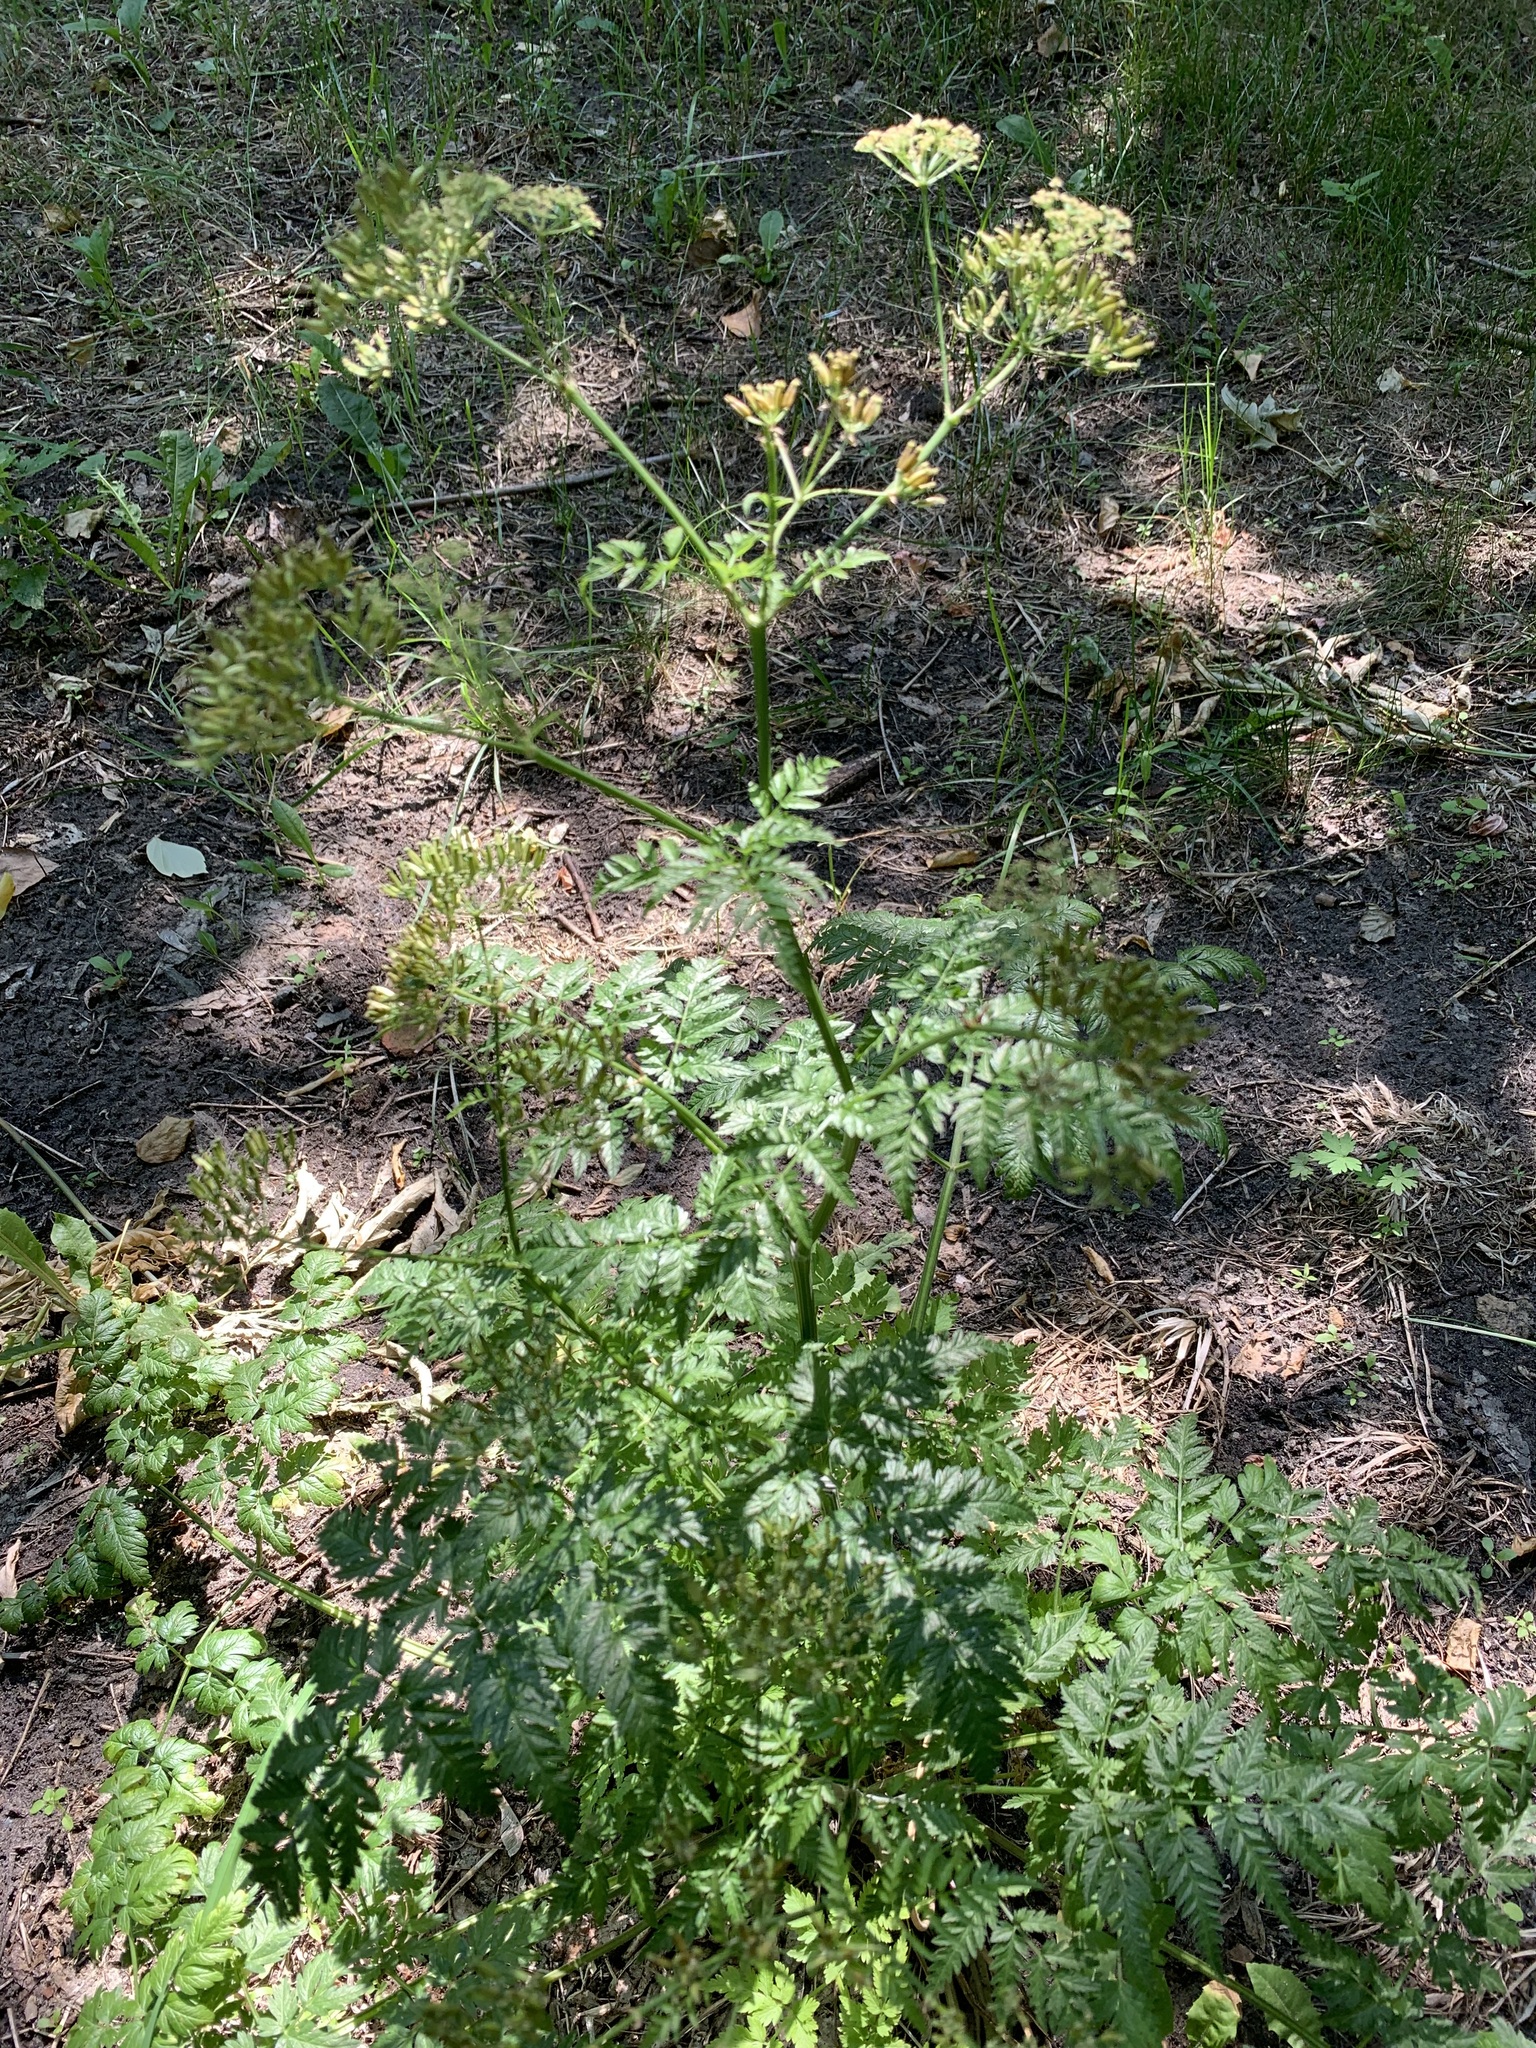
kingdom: Plantae
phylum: Tracheophyta
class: Magnoliopsida
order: Apiales
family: Apiaceae
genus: Anthriscus
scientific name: Anthriscus sylvestris
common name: Cow parsley
